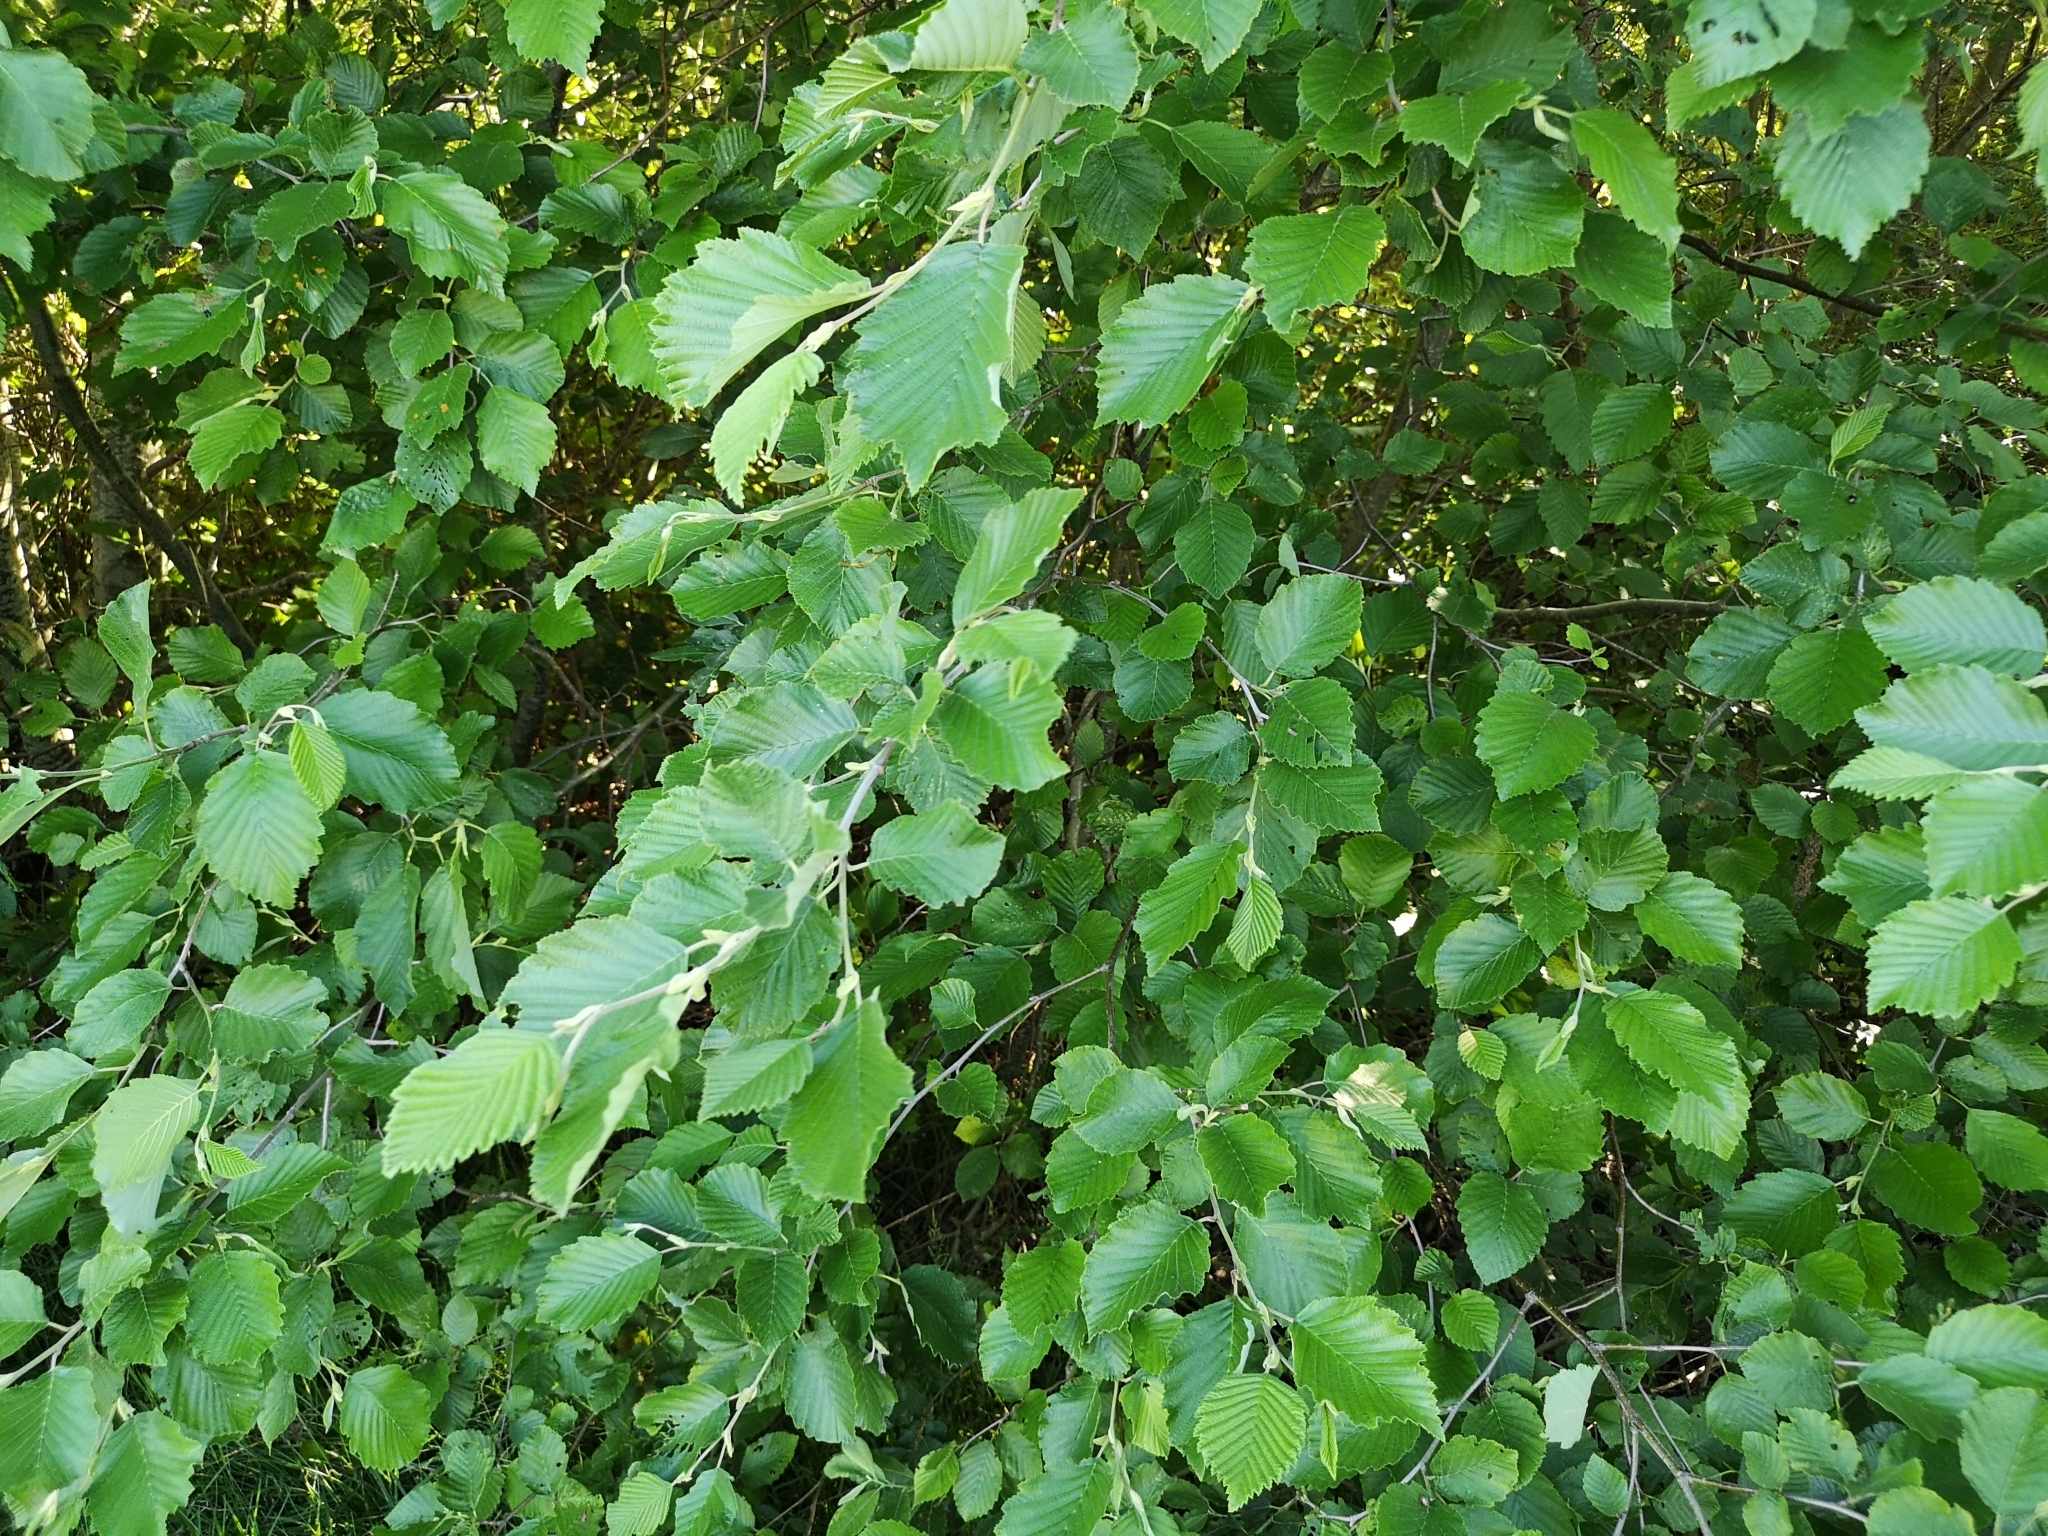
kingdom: Plantae
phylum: Tracheophyta
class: Magnoliopsida
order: Fagales
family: Betulaceae
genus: Alnus
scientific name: Alnus incana
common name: Grey alder
